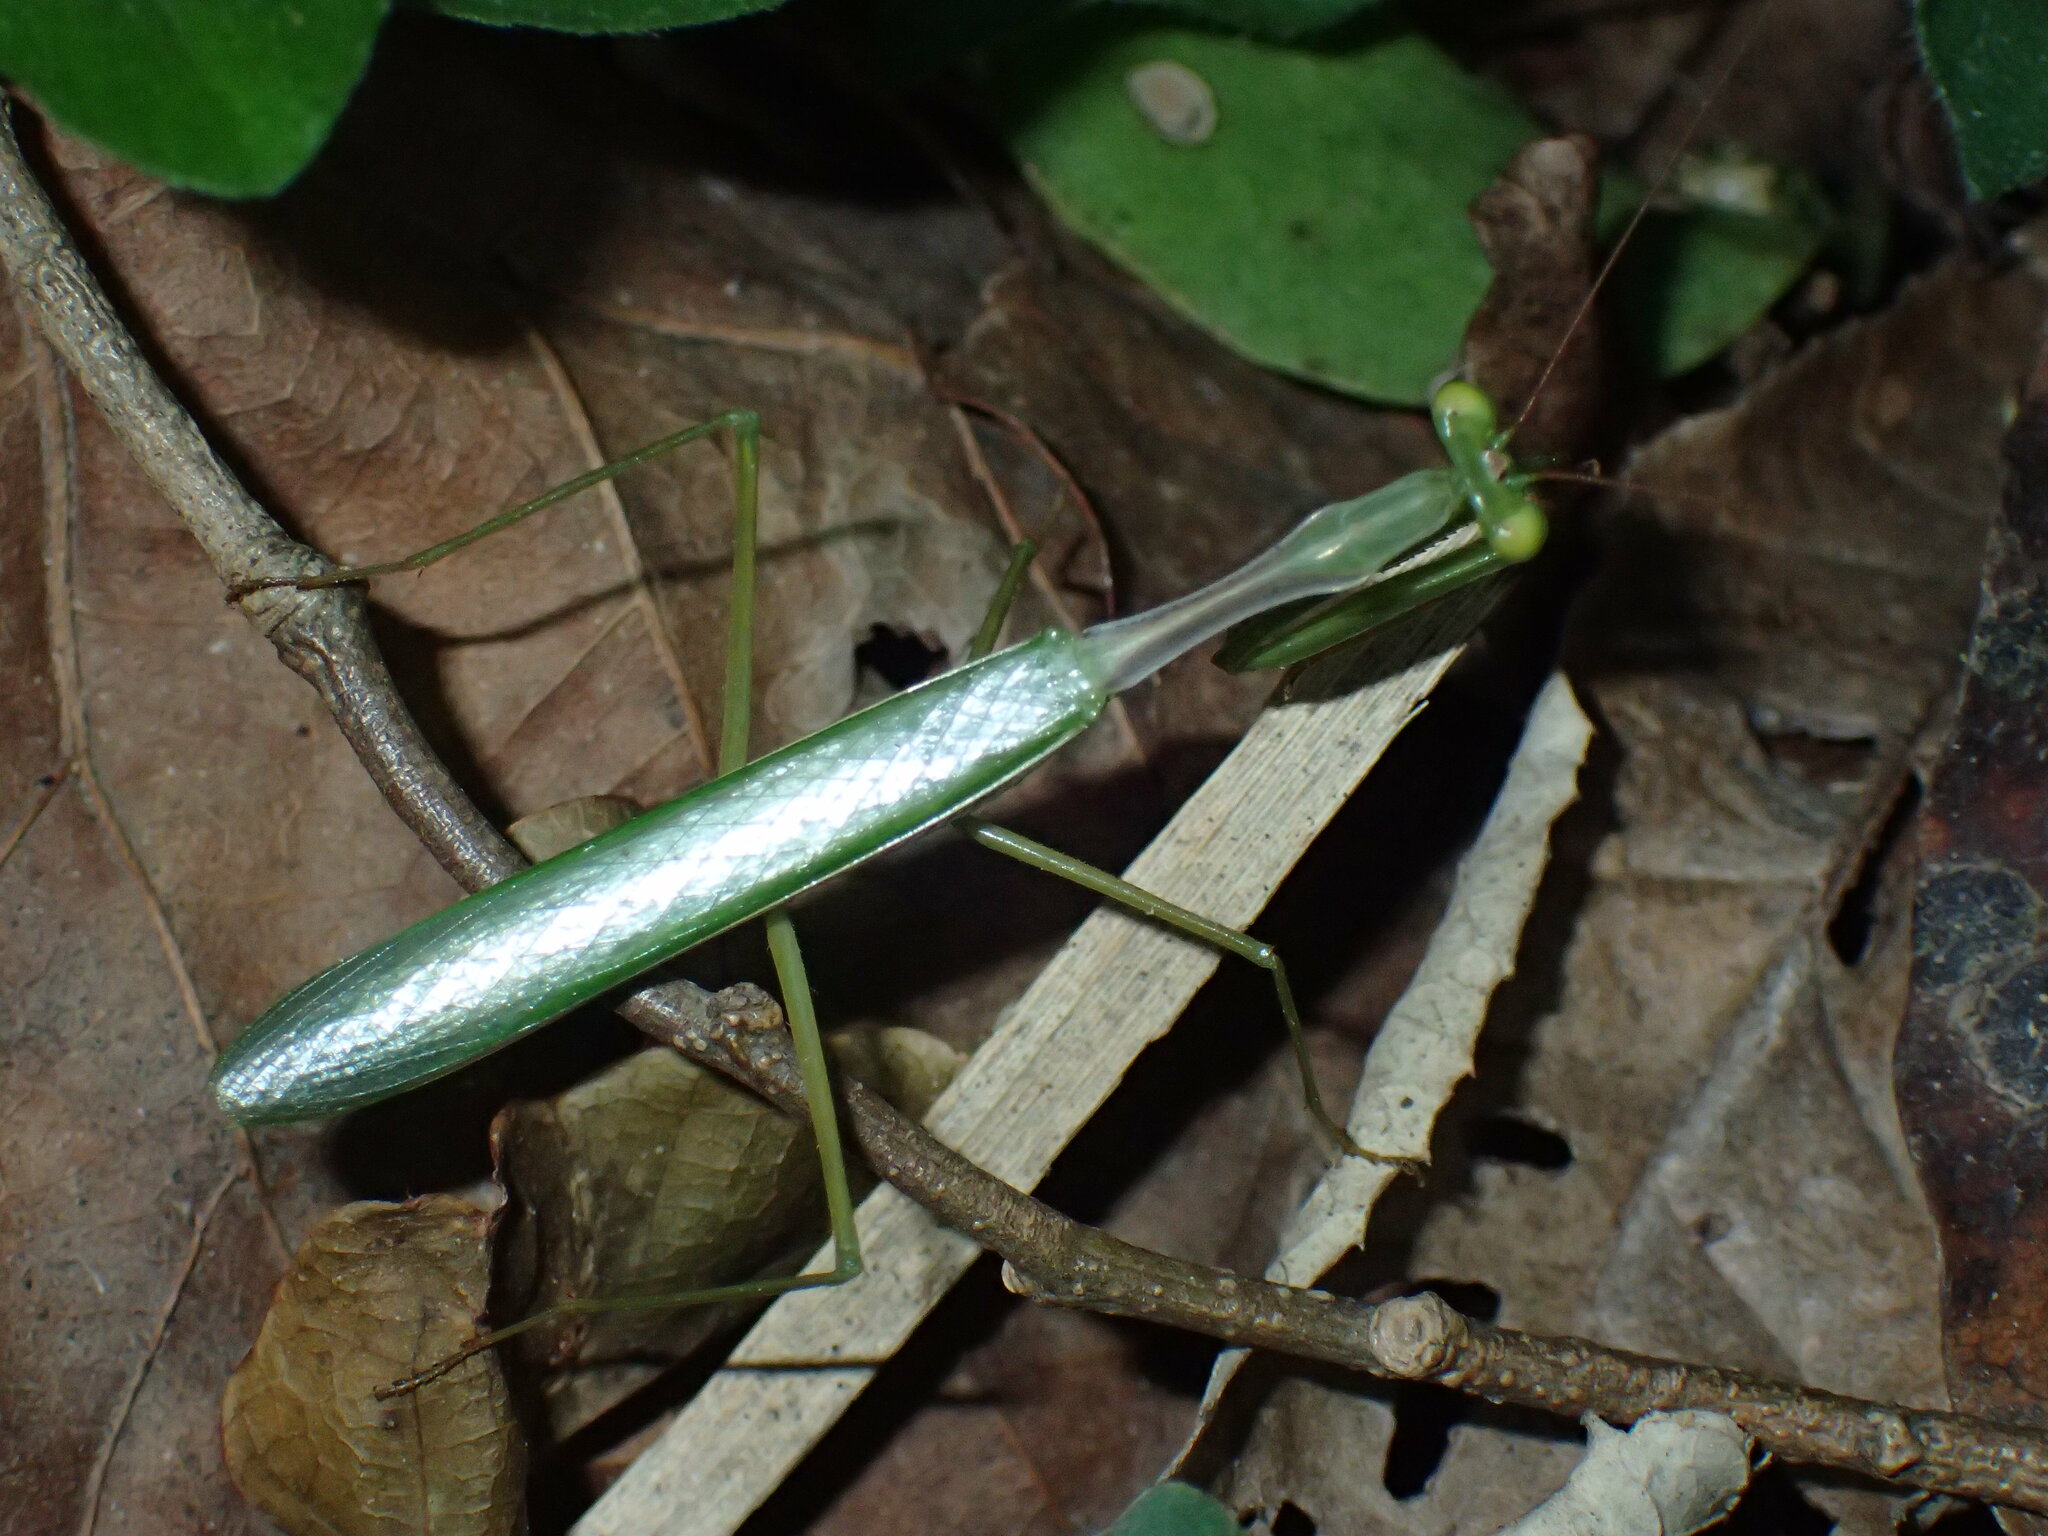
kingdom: Animalia
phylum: Arthropoda
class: Insecta
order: Mantodea
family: Miomantidae
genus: Miomantis
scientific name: Miomantis caffra
